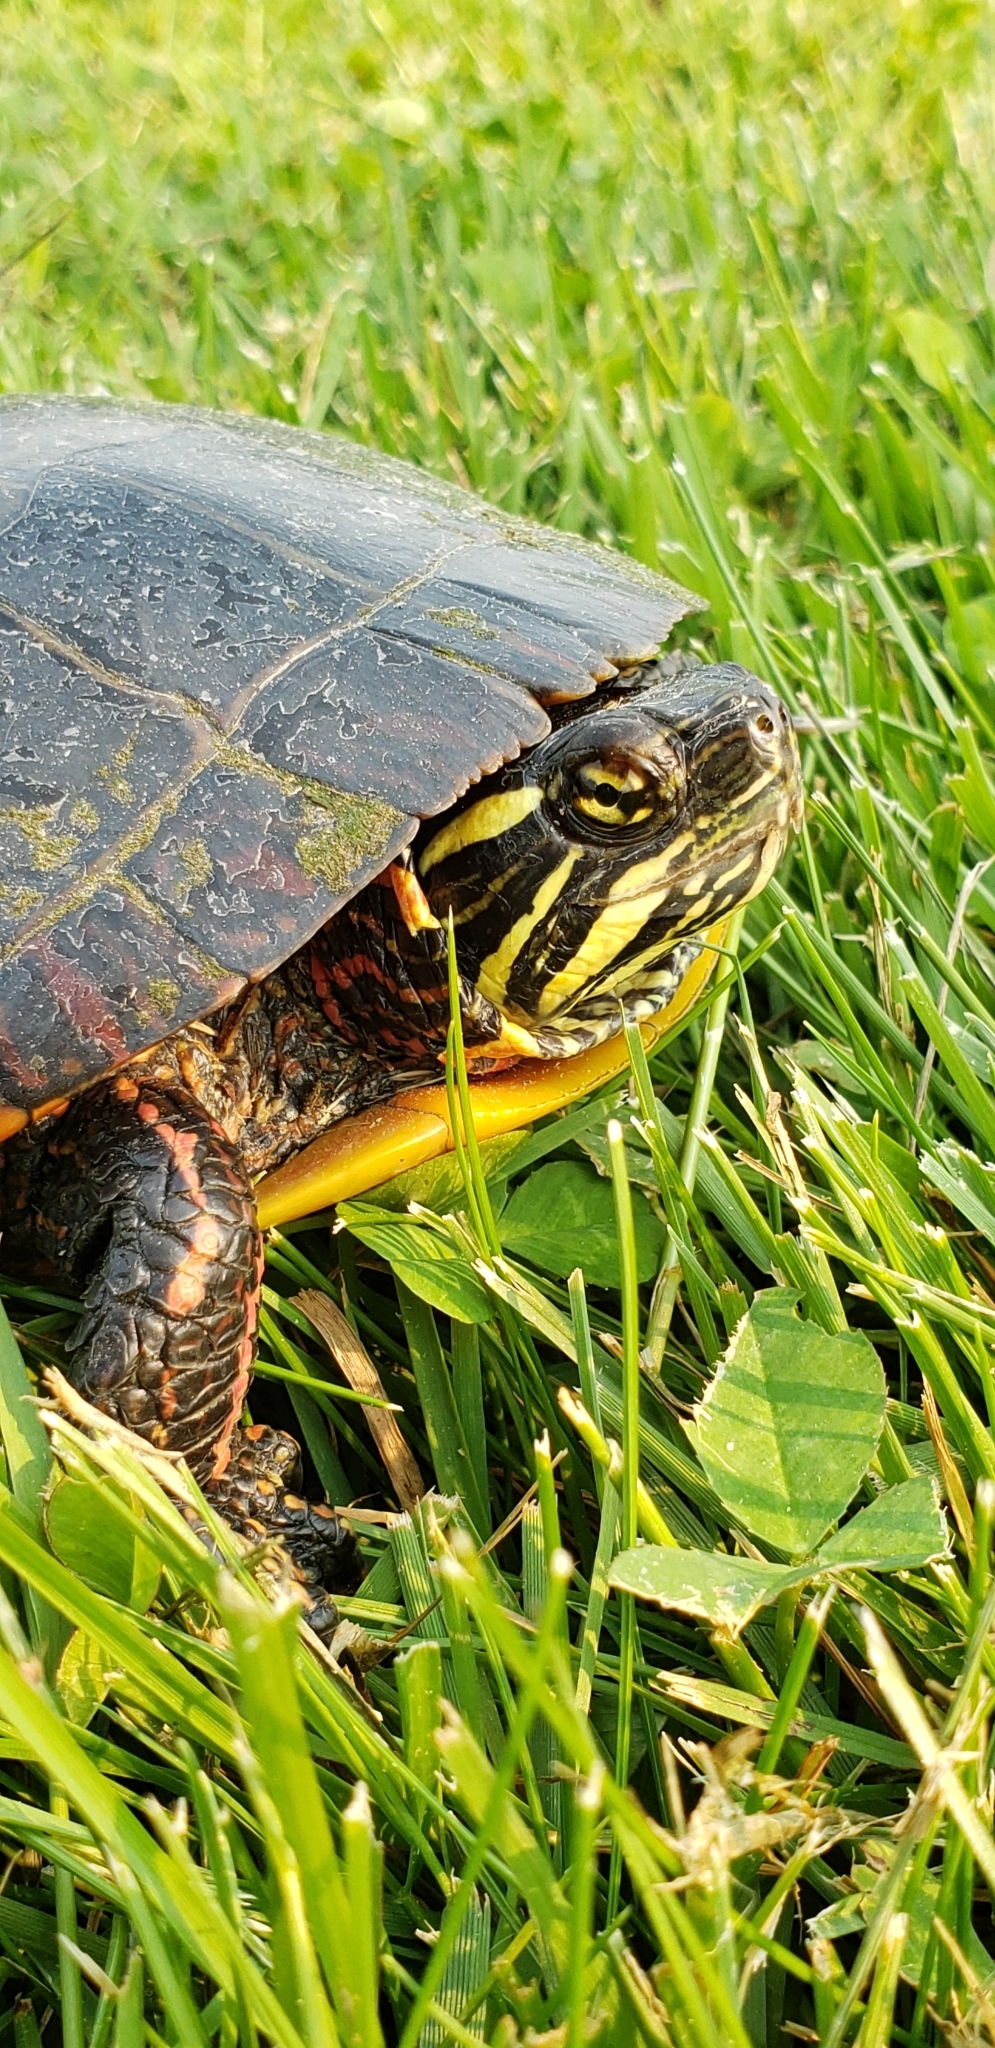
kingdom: Animalia
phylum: Chordata
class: Testudines
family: Emydidae
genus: Chrysemys
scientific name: Chrysemys picta
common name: Painted turtle
